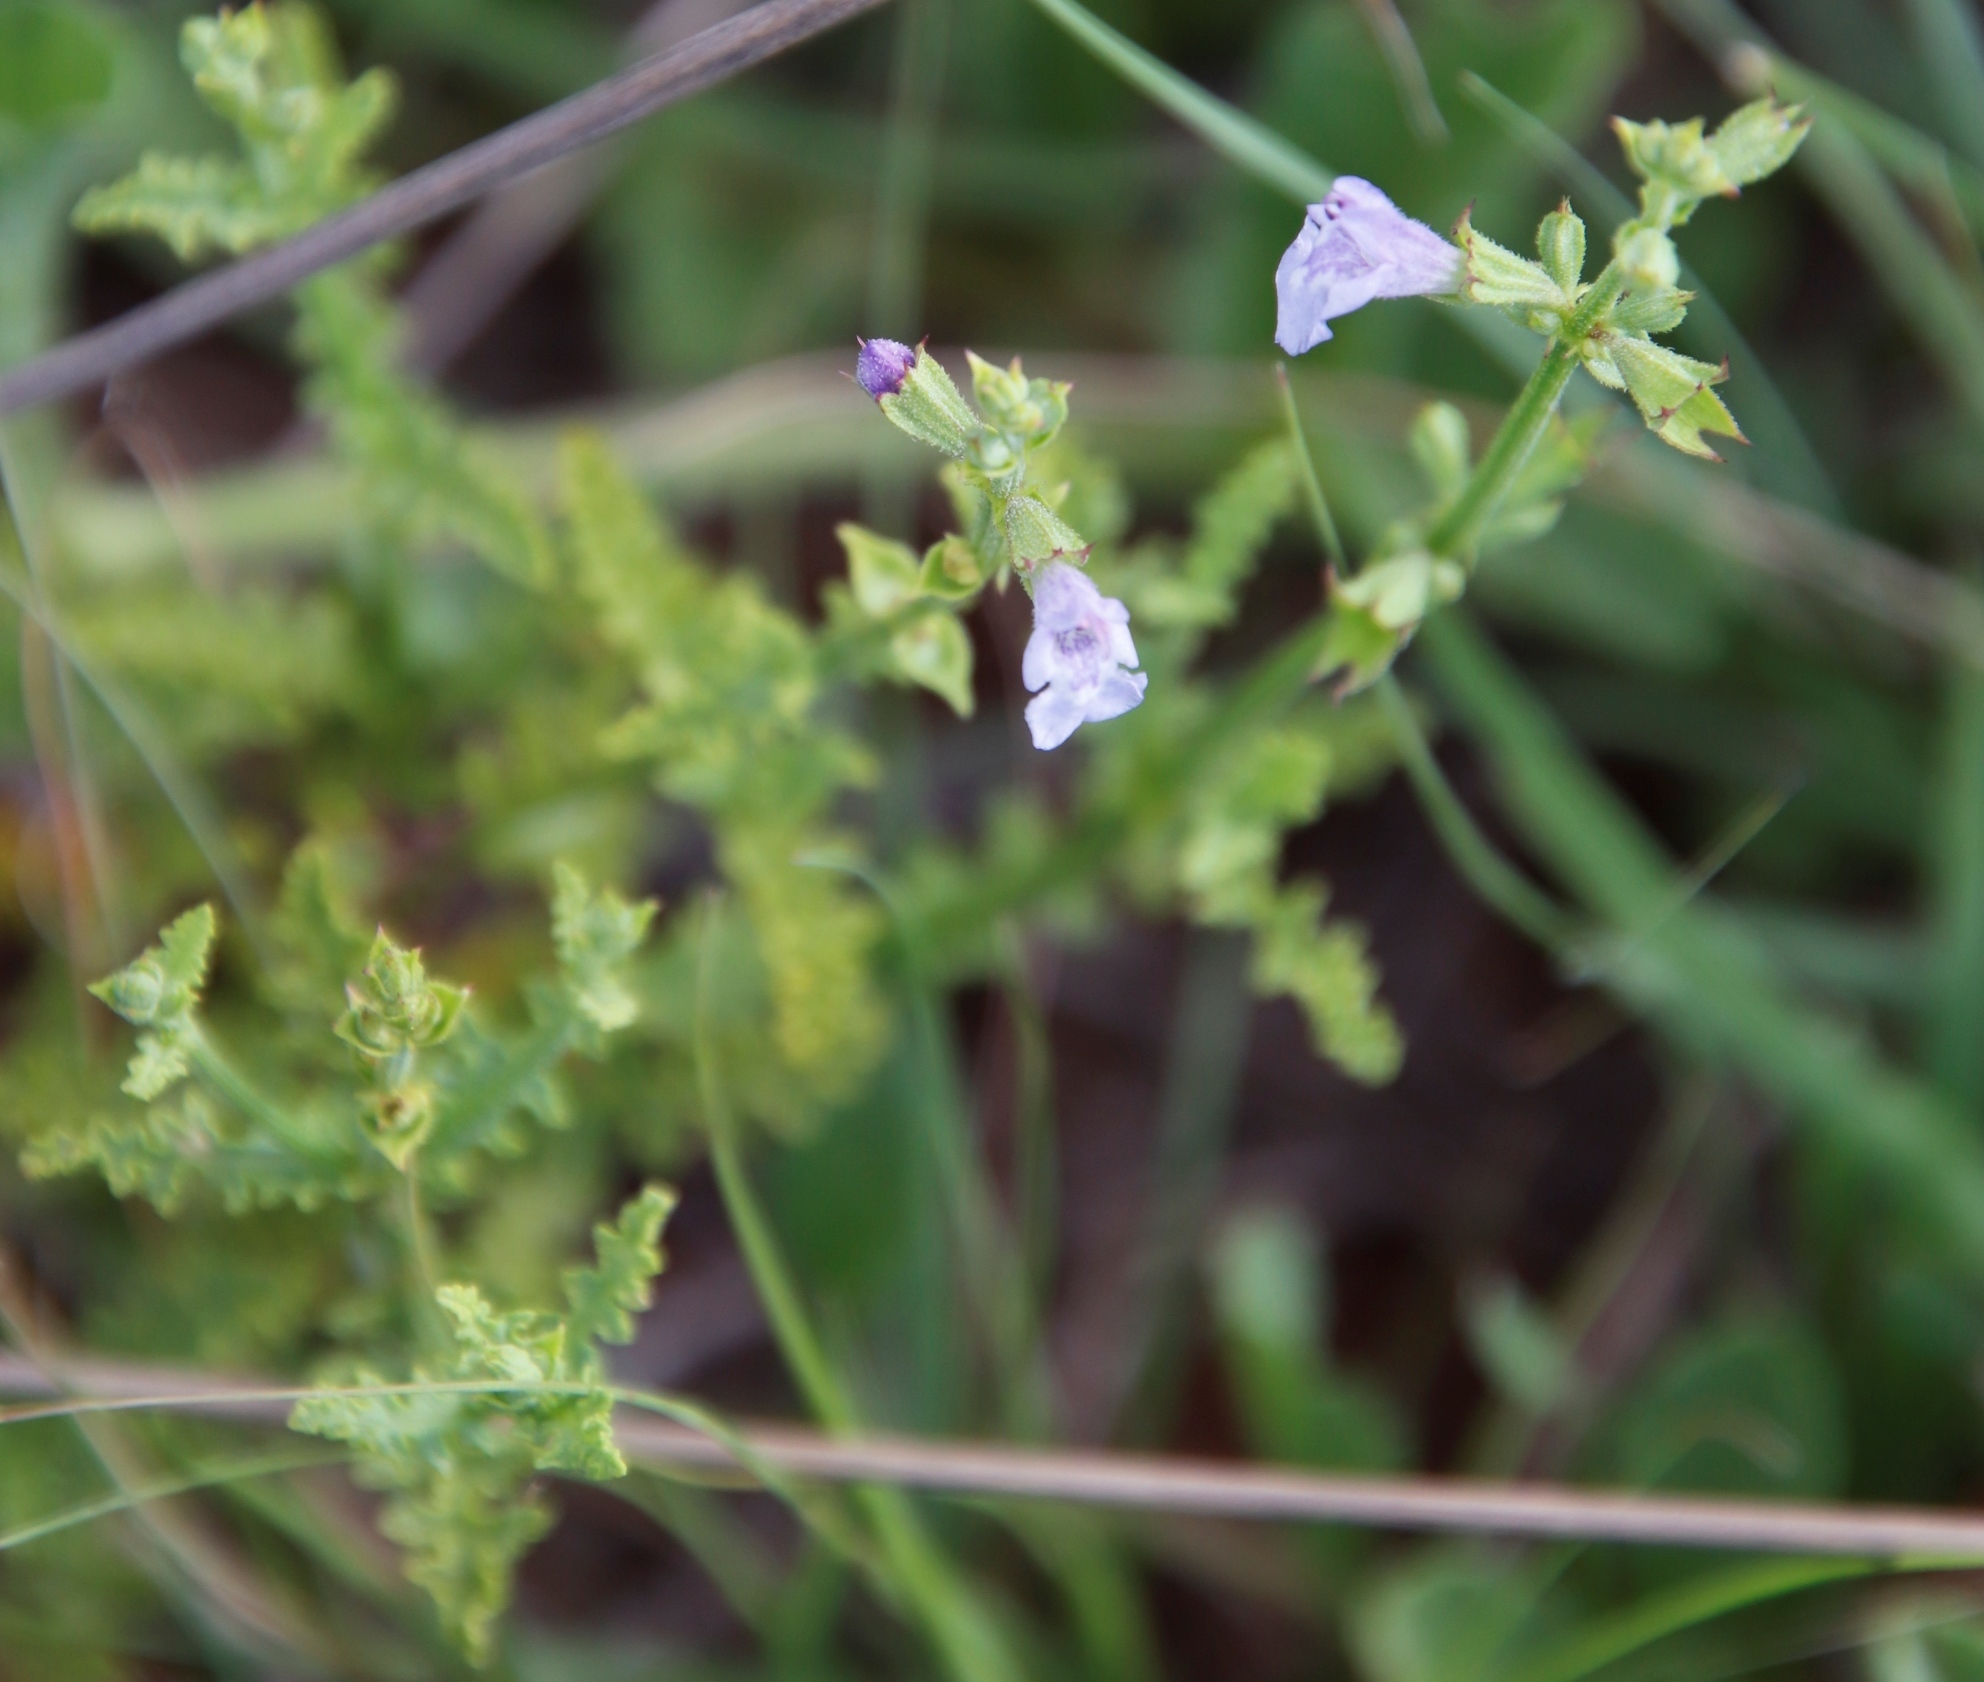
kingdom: Plantae
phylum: Tracheophyta
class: Magnoliopsida
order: Lamiales
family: Lamiaceae
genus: Salvia
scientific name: Salvia stenophylla
